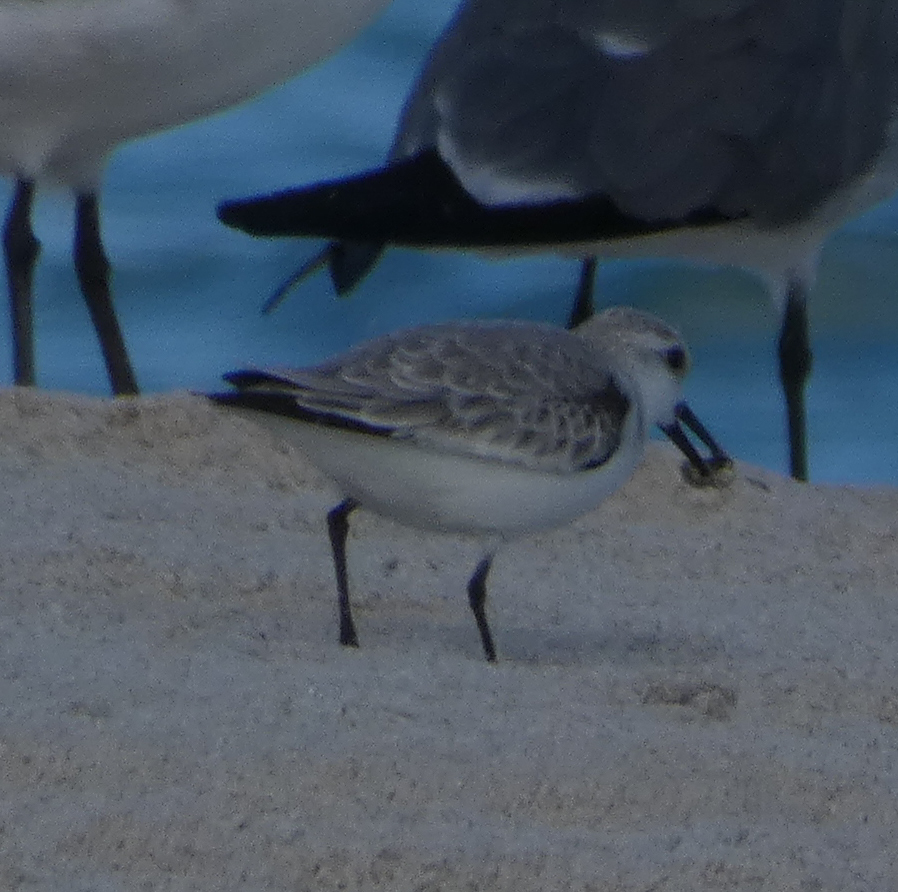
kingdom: Animalia
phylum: Chordata
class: Aves
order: Charadriiformes
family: Scolopacidae
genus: Calidris
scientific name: Calidris alba
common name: Sanderling
